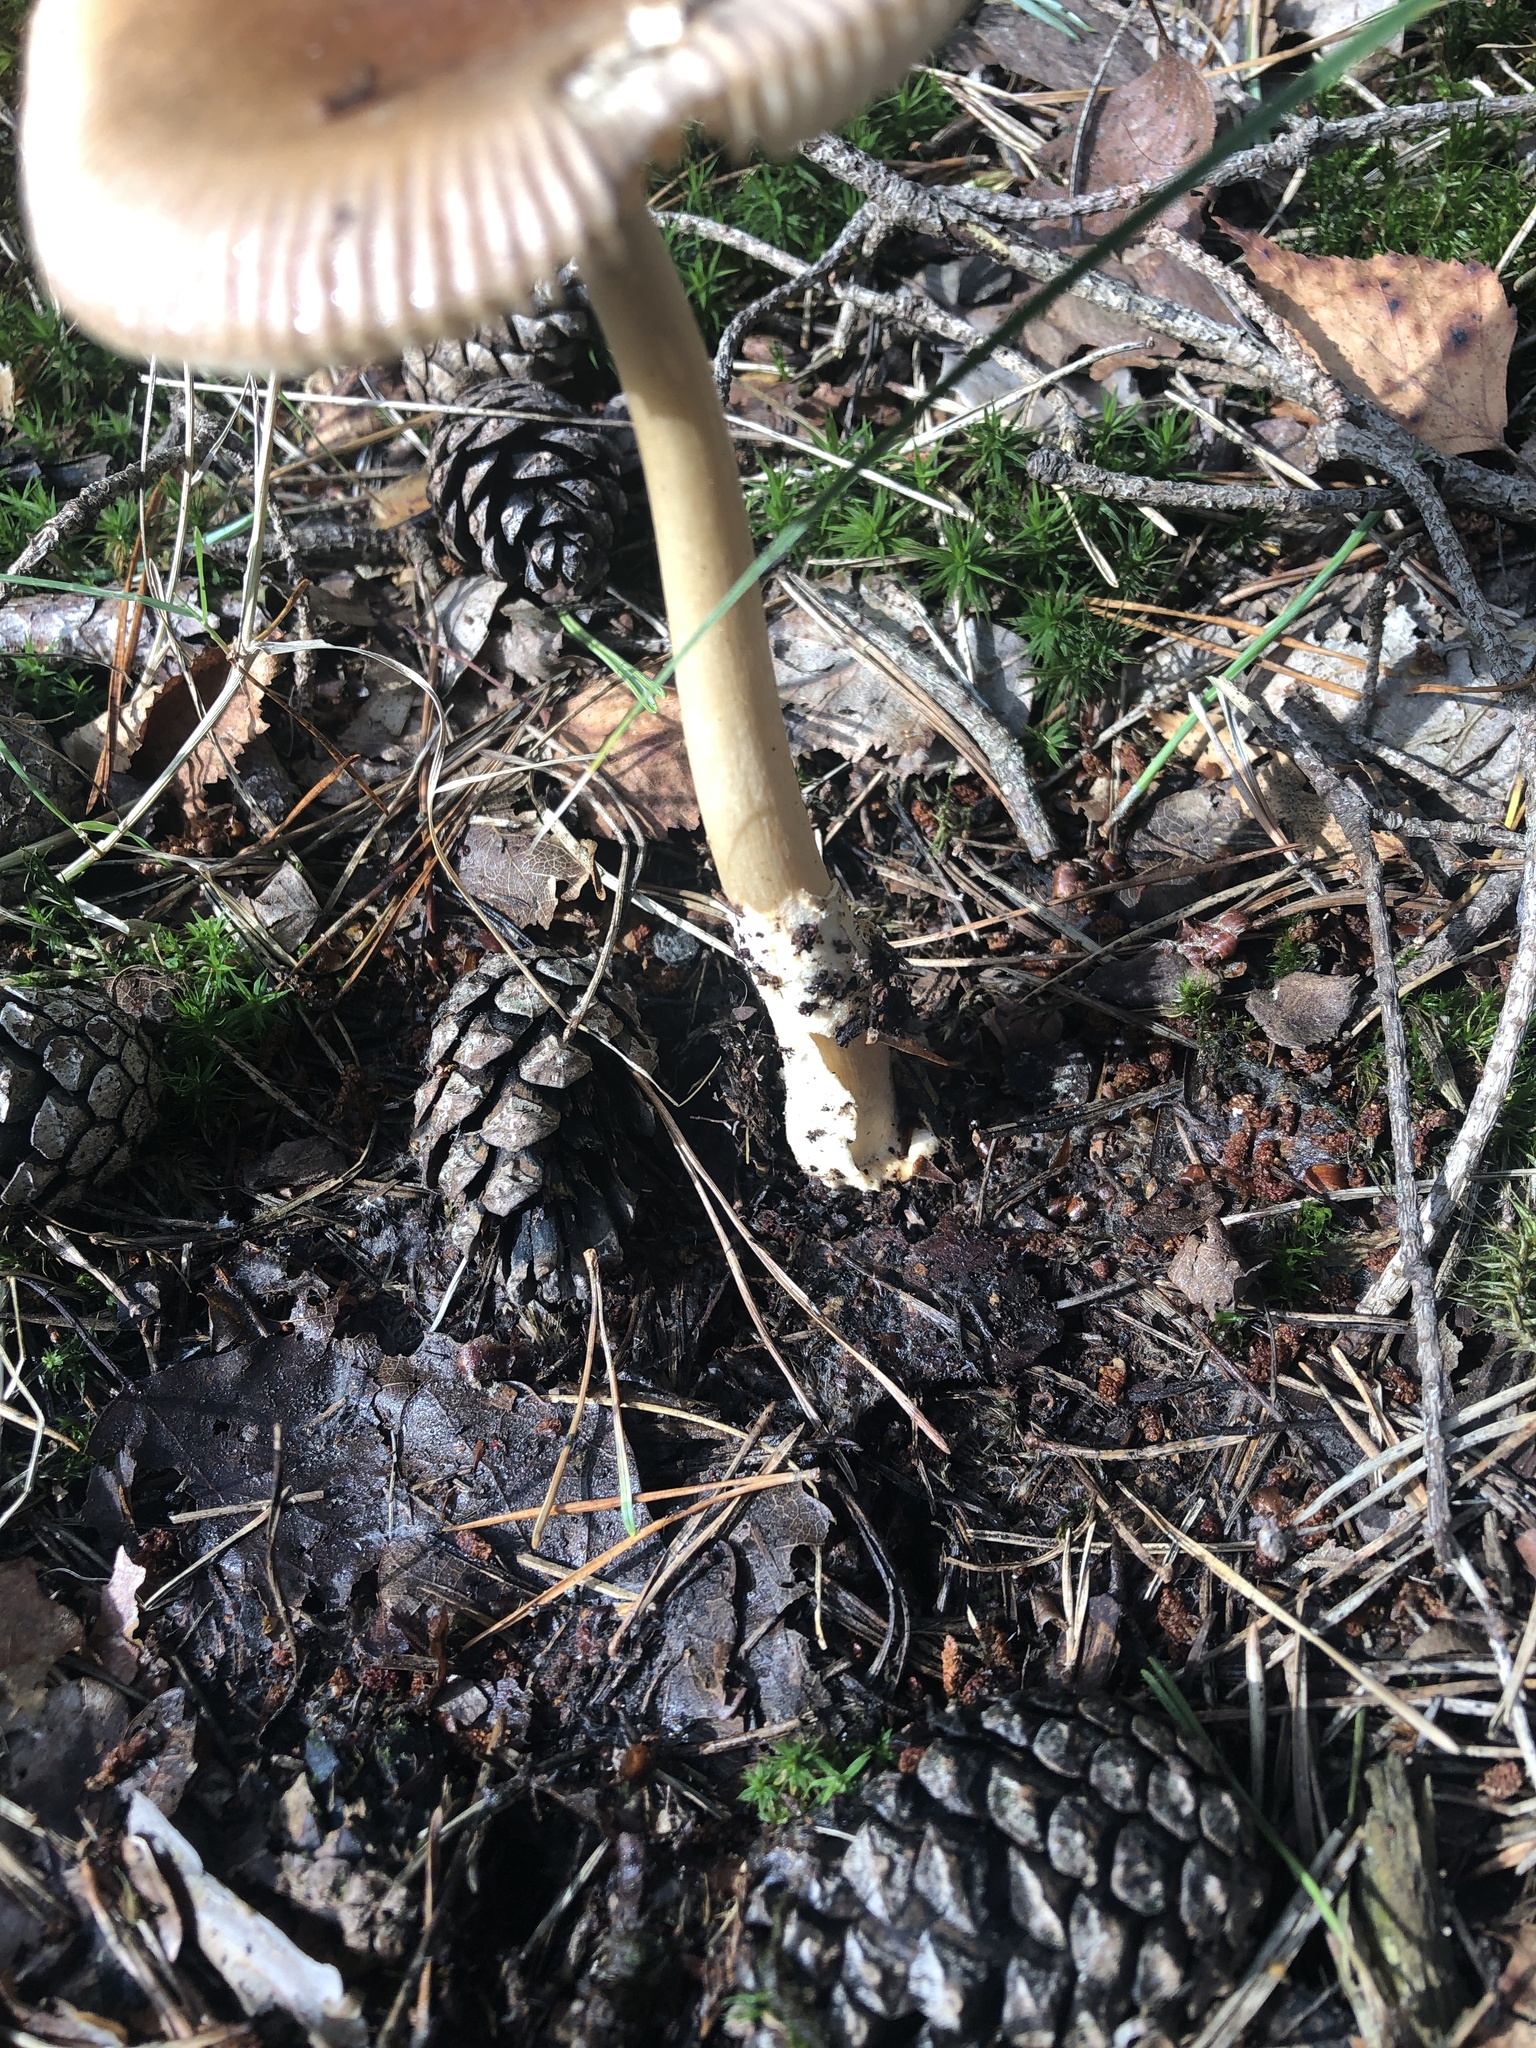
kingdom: Fungi
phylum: Basidiomycota
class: Agaricomycetes
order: Agaricales
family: Amanitaceae
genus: Amanita
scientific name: Amanita fulva
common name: Tawny grisette
